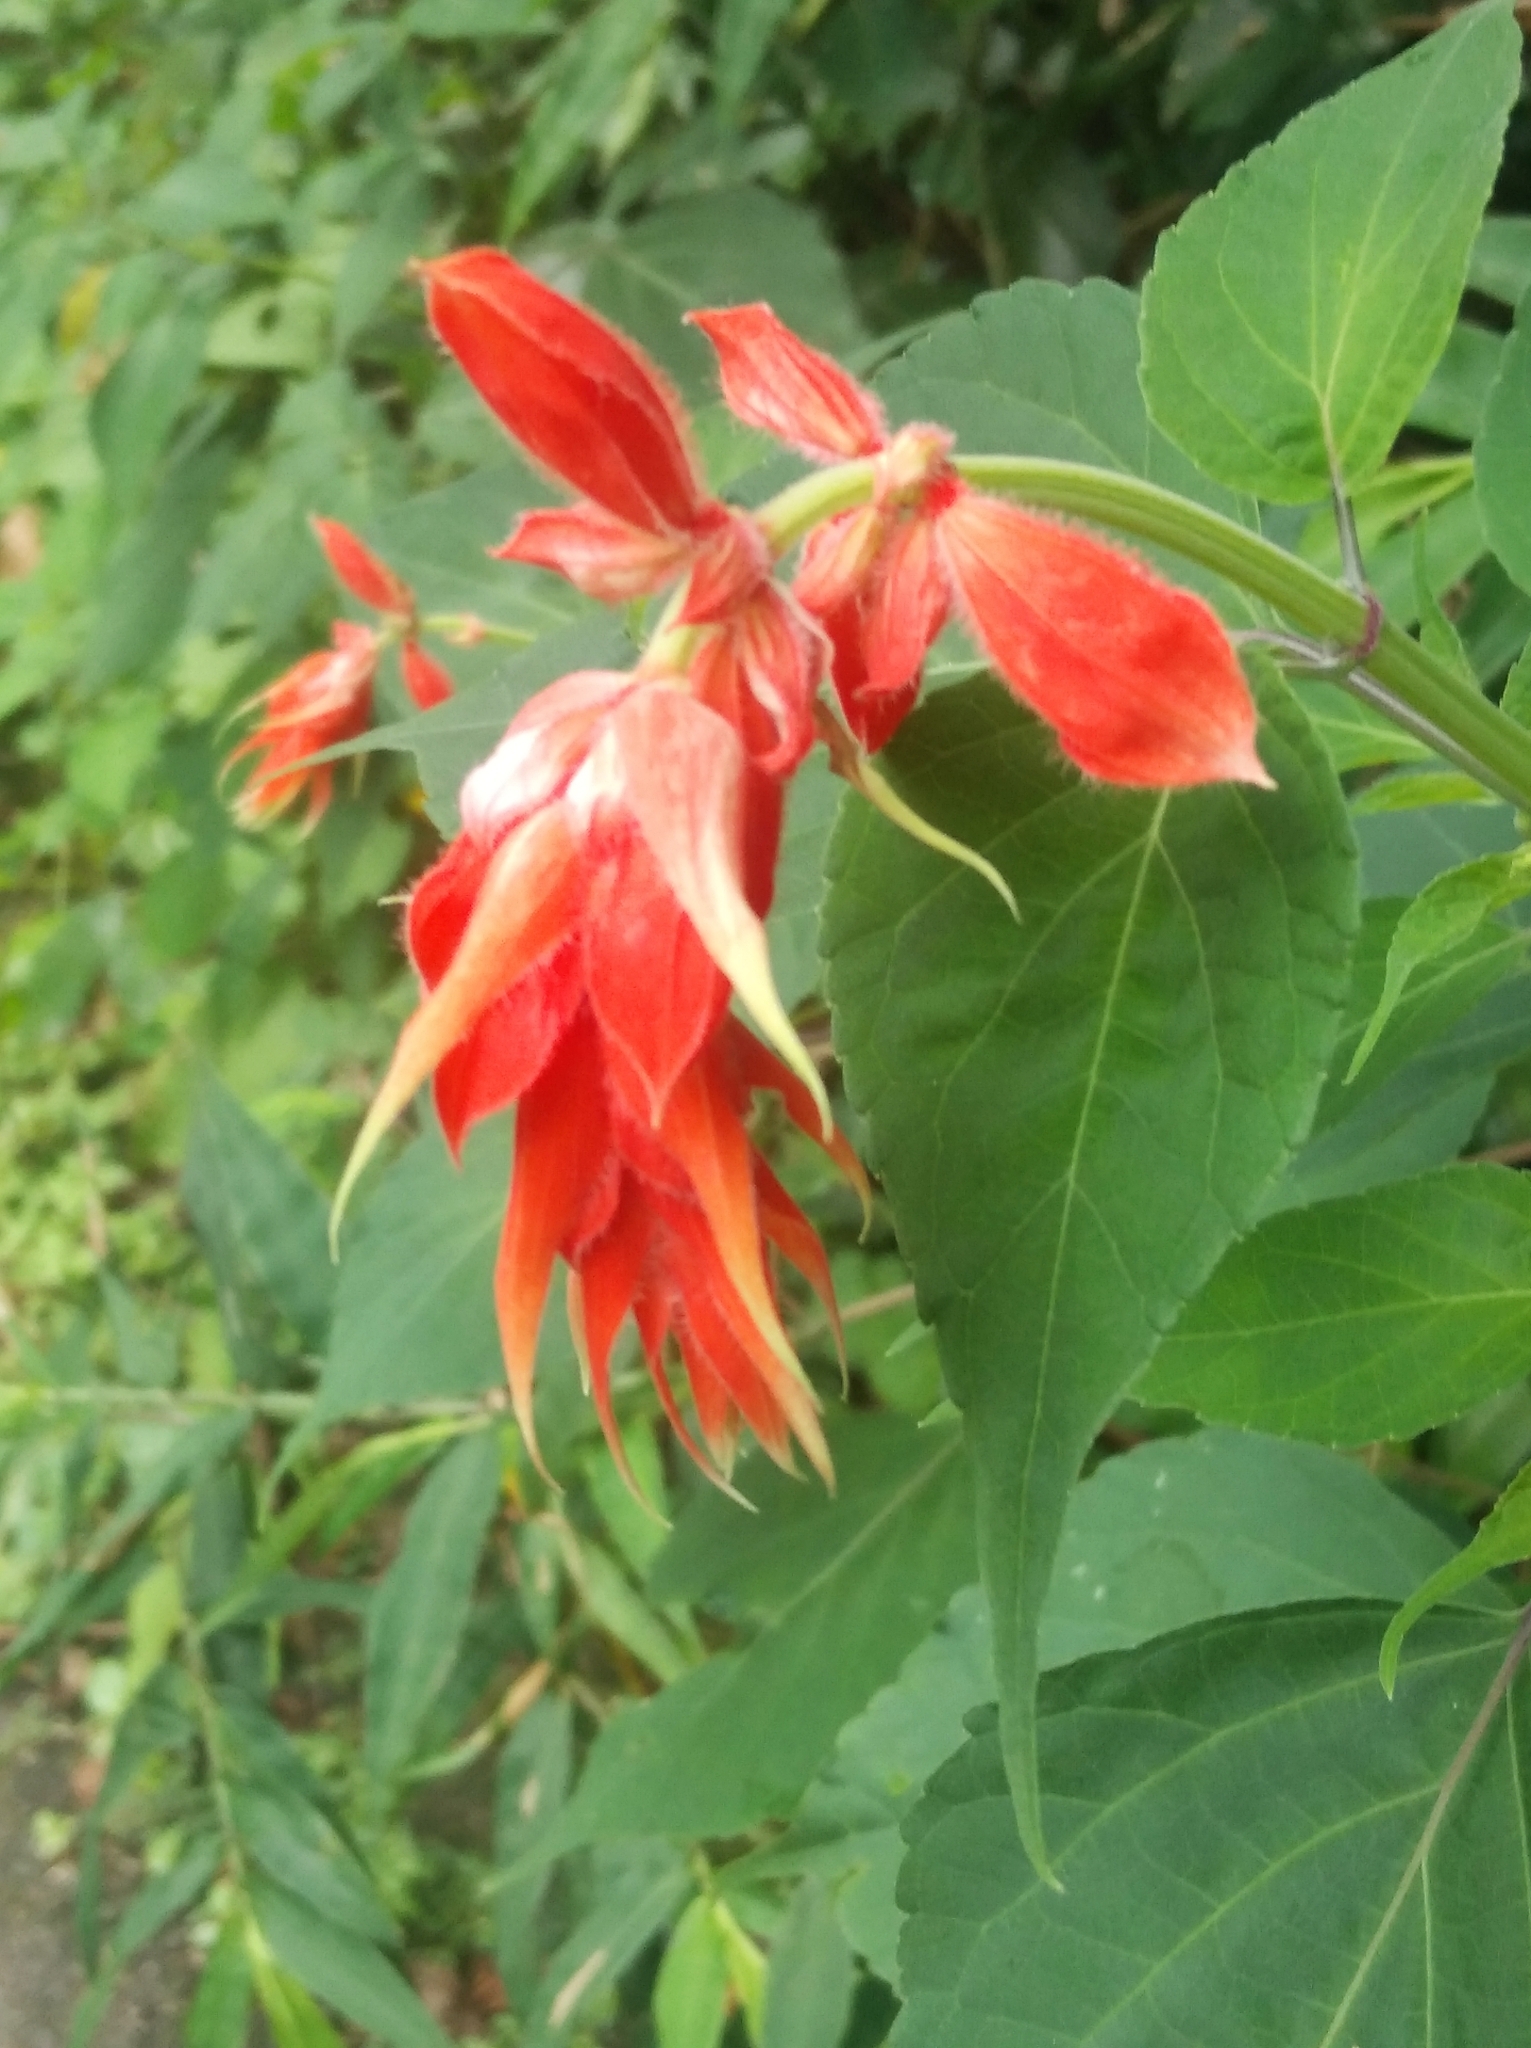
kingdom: Plantae
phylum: Tracheophyta
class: Magnoliopsida
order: Lamiales
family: Lamiaceae
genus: Salvia
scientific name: Salvia splendens
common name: Scarlet sage
